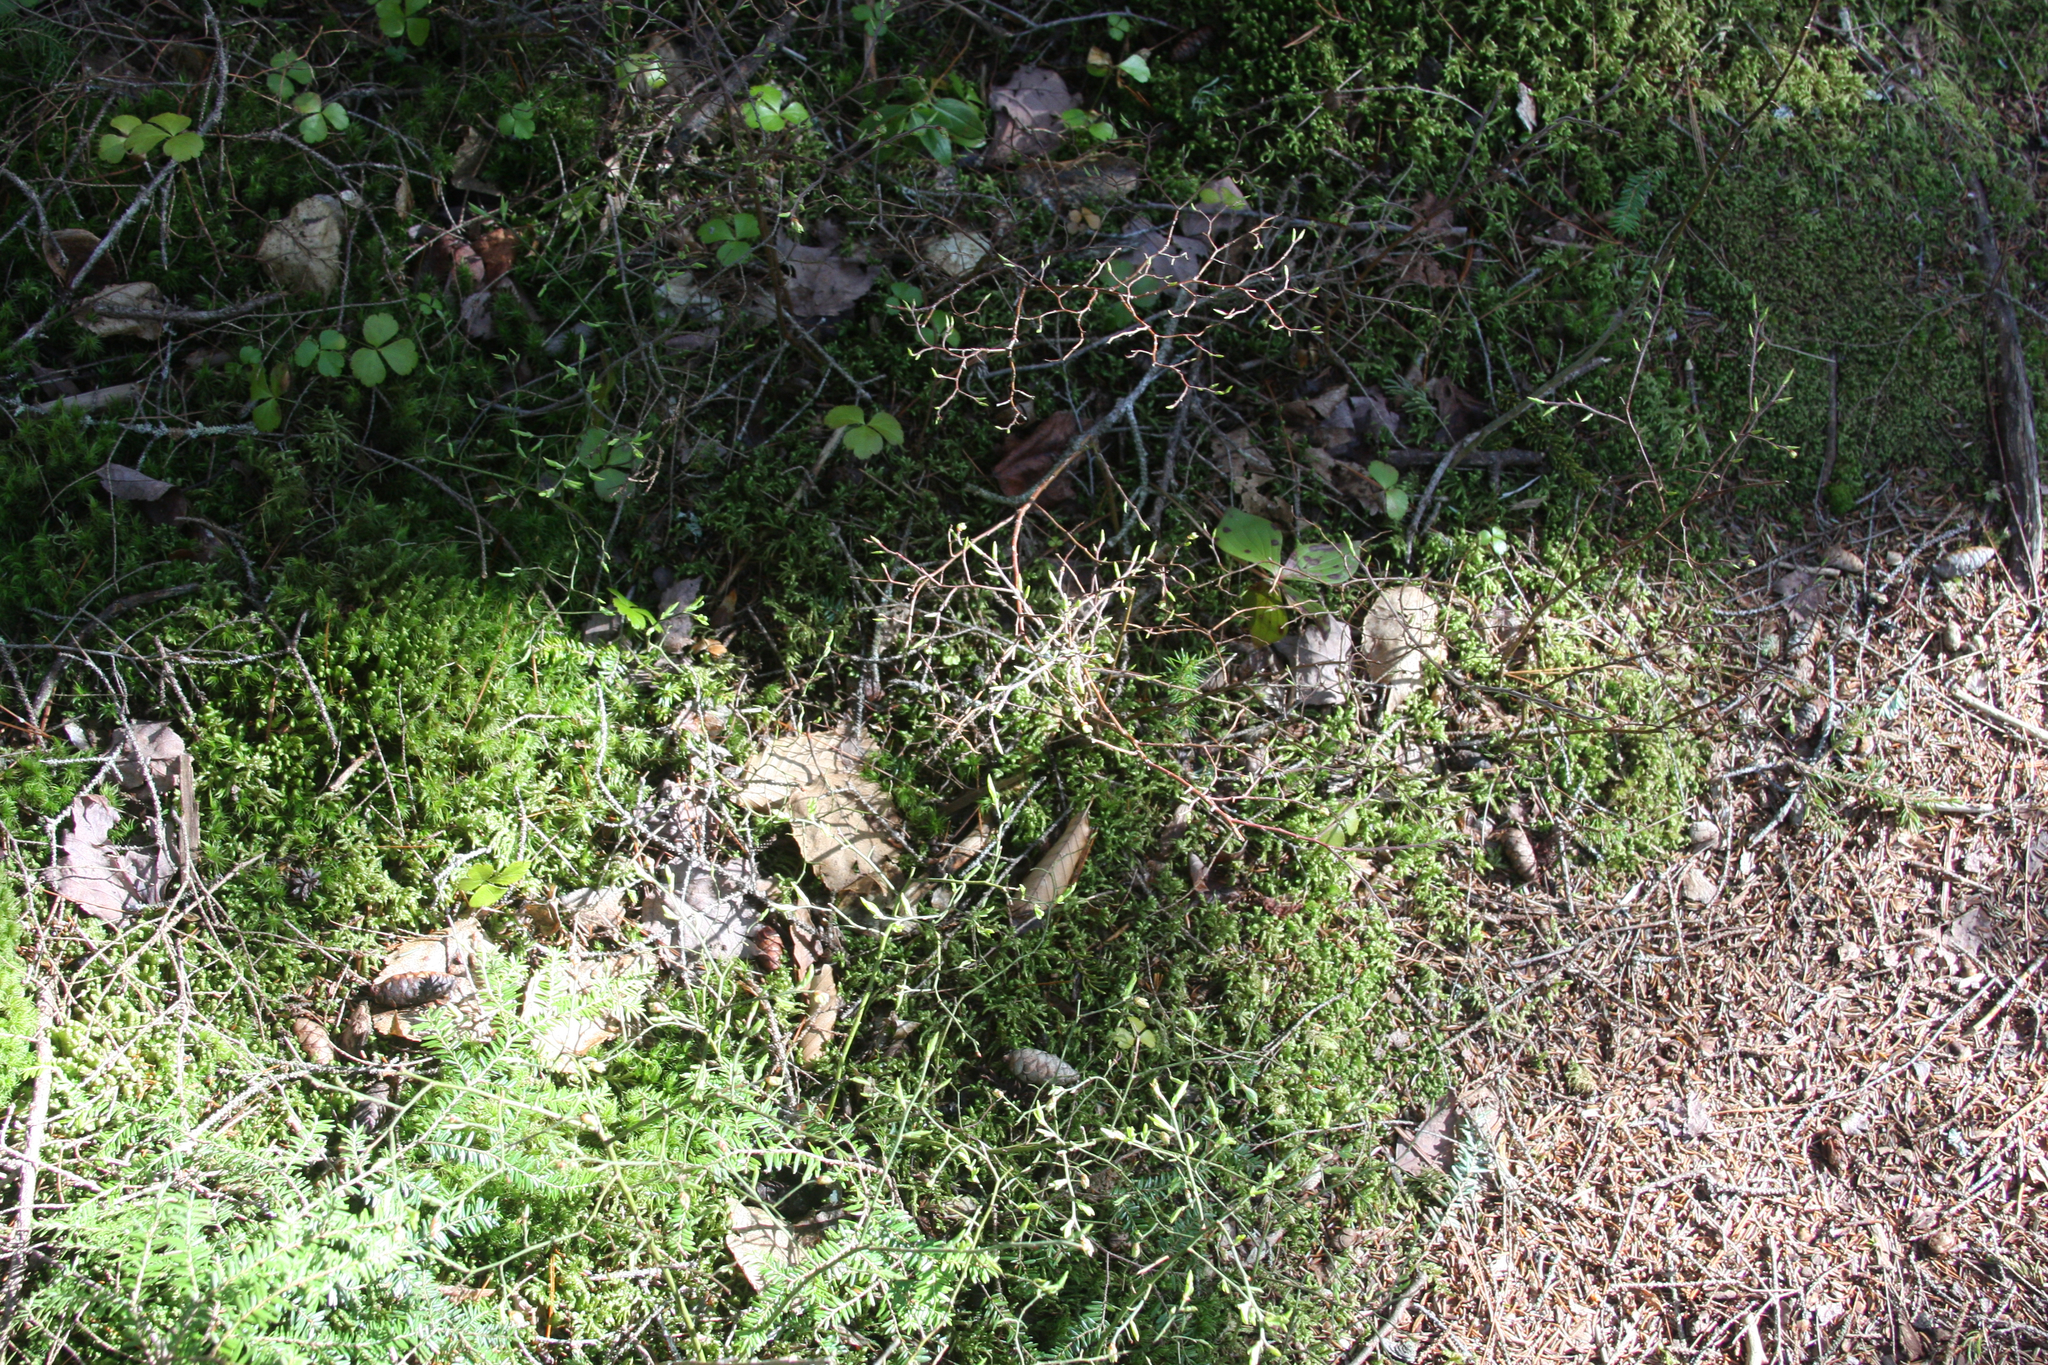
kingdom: Plantae
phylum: Tracheophyta
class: Magnoliopsida
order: Ranunculales
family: Ranunculaceae
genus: Coptis
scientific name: Coptis trifolia
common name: Canker-root
